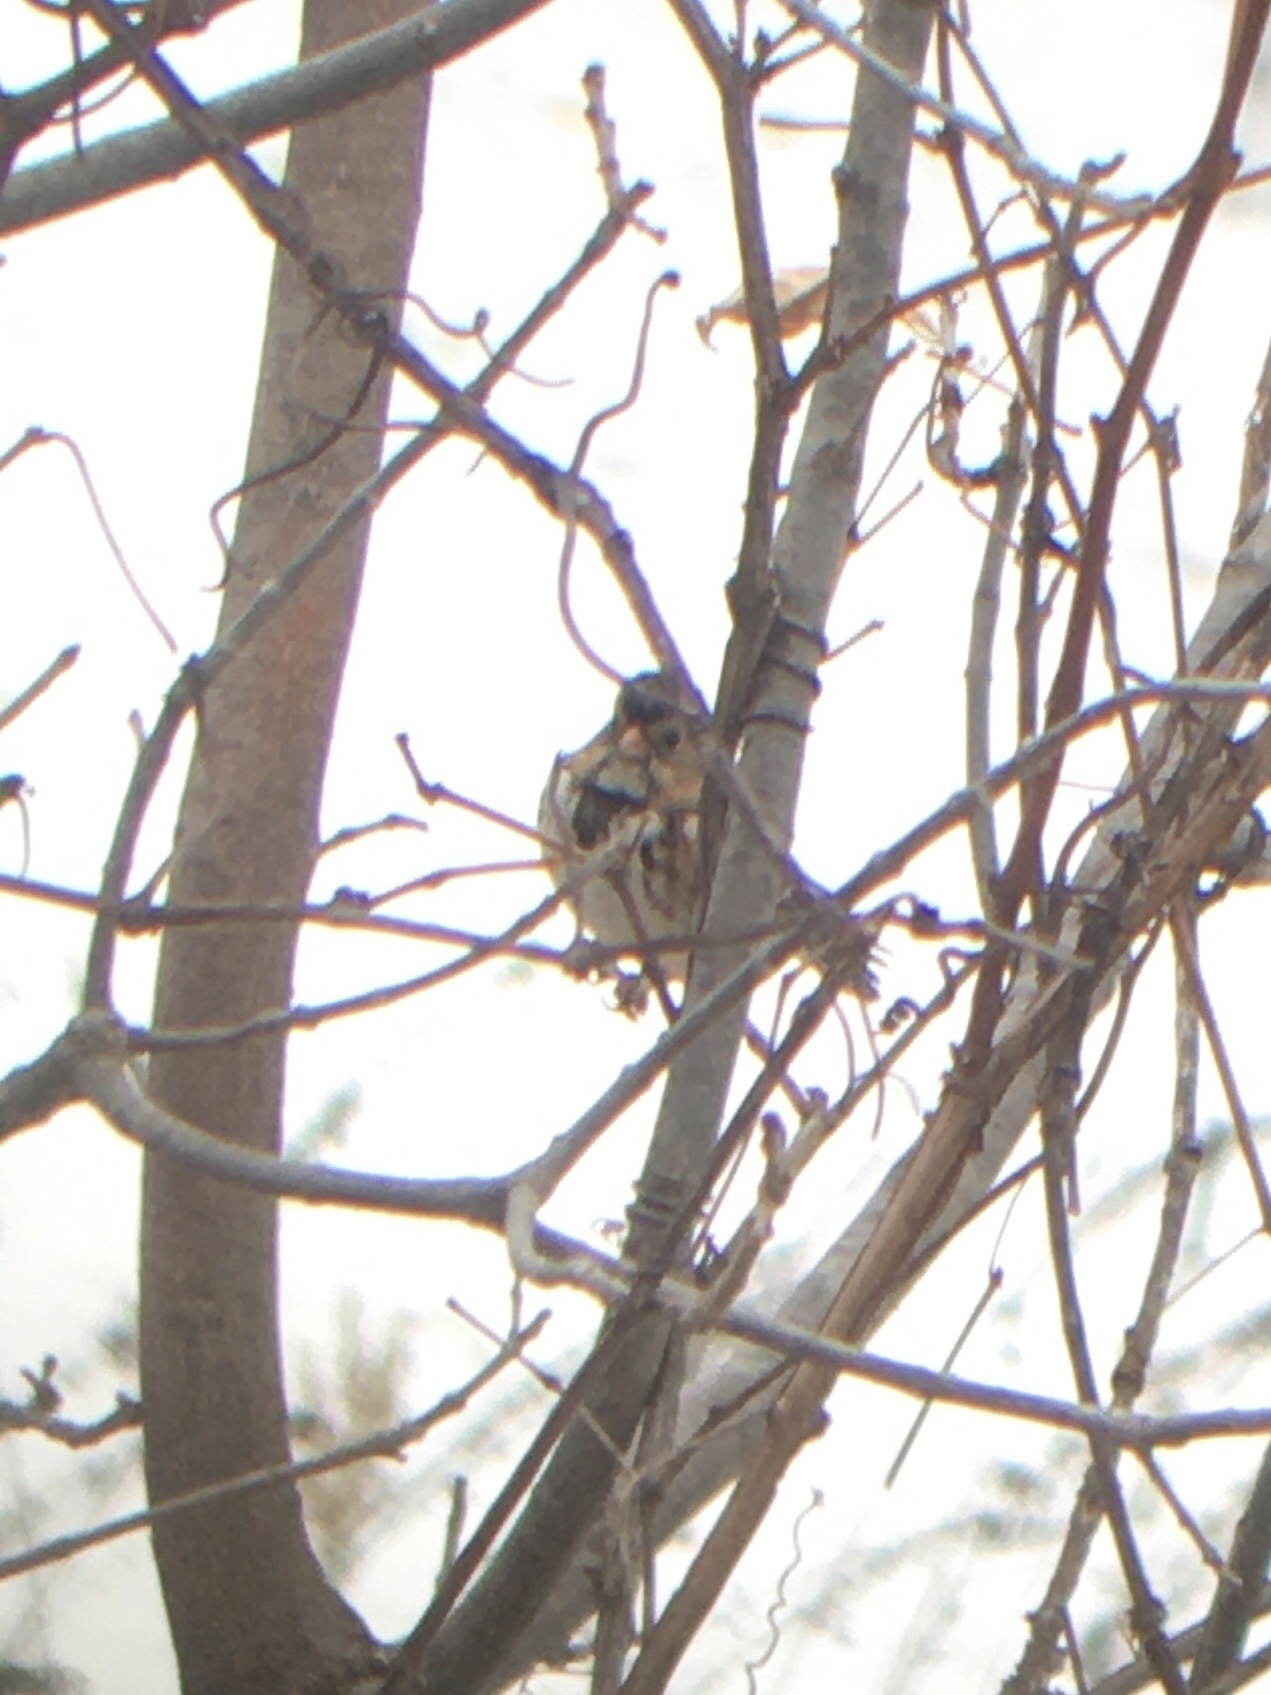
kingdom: Animalia
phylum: Chordata
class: Aves
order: Passeriformes
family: Passerellidae
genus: Zonotrichia
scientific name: Zonotrichia querula
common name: Harris's sparrow
